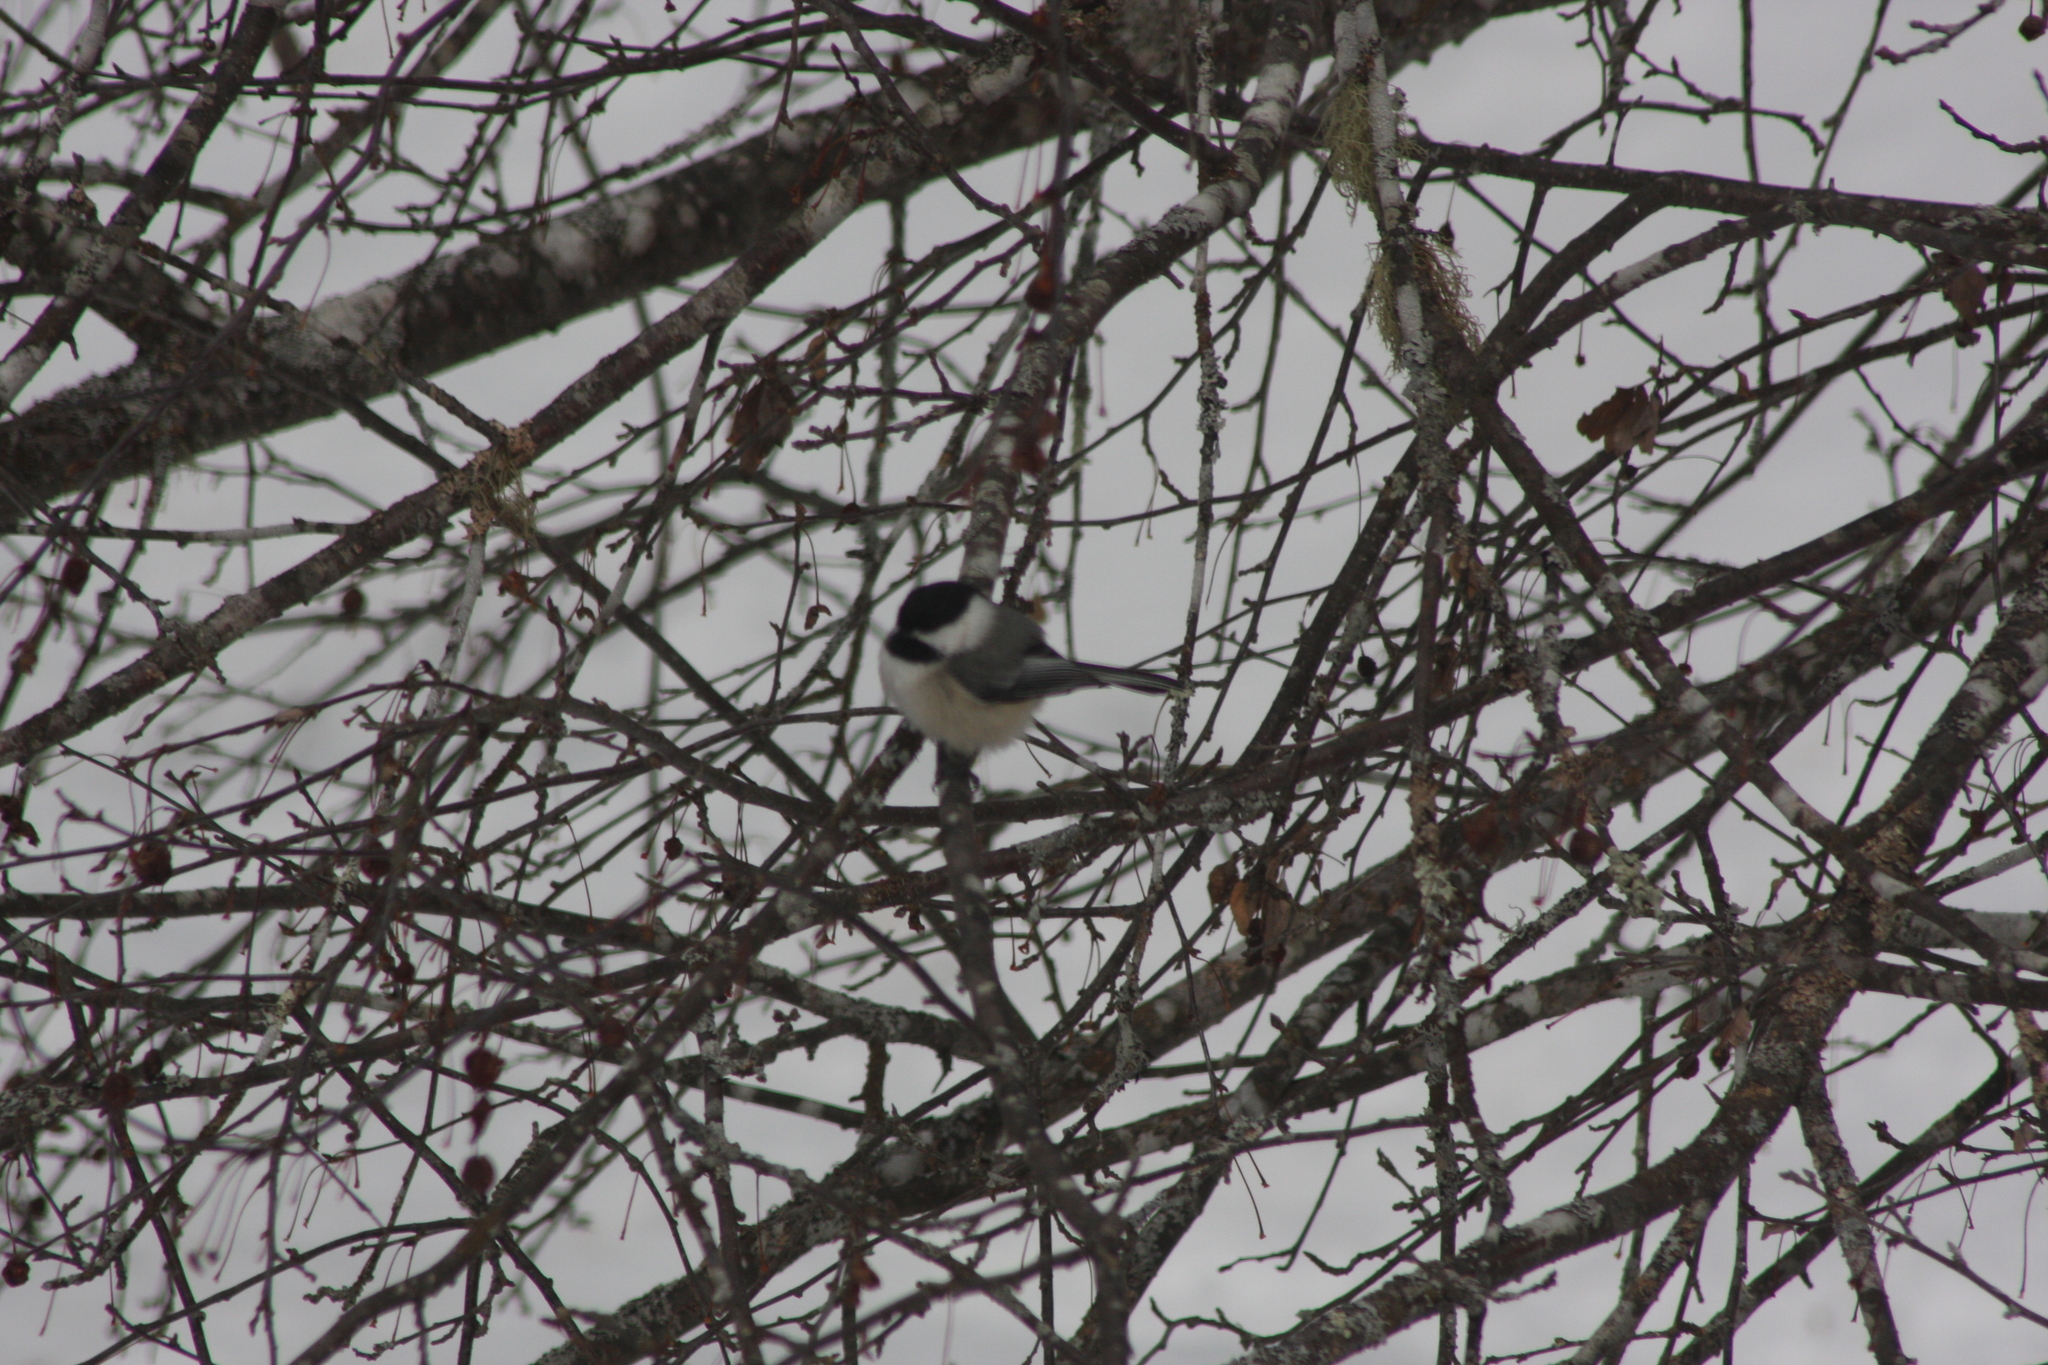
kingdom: Animalia
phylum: Chordata
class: Aves
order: Passeriformes
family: Paridae
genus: Poecile
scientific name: Poecile atricapillus
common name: Black-capped chickadee
